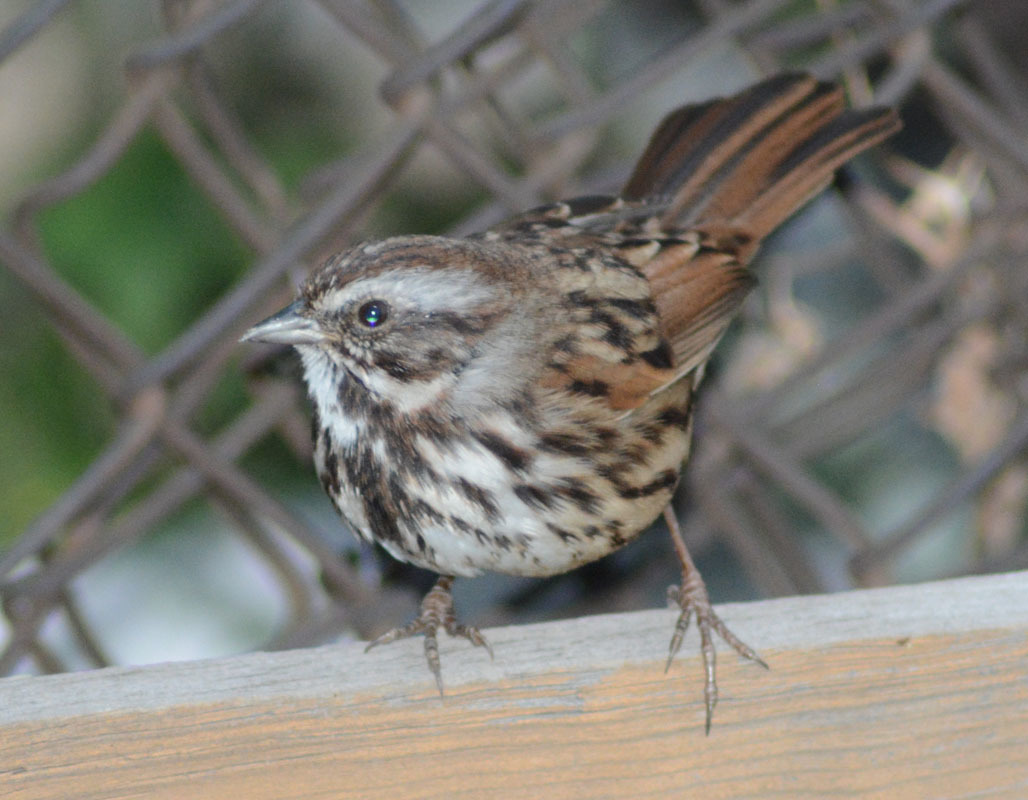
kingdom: Animalia
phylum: Chordata
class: Aves
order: Passeriformes
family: Passerellidae
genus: Melospiza
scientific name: Melospiza melodia
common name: Song sparrow
